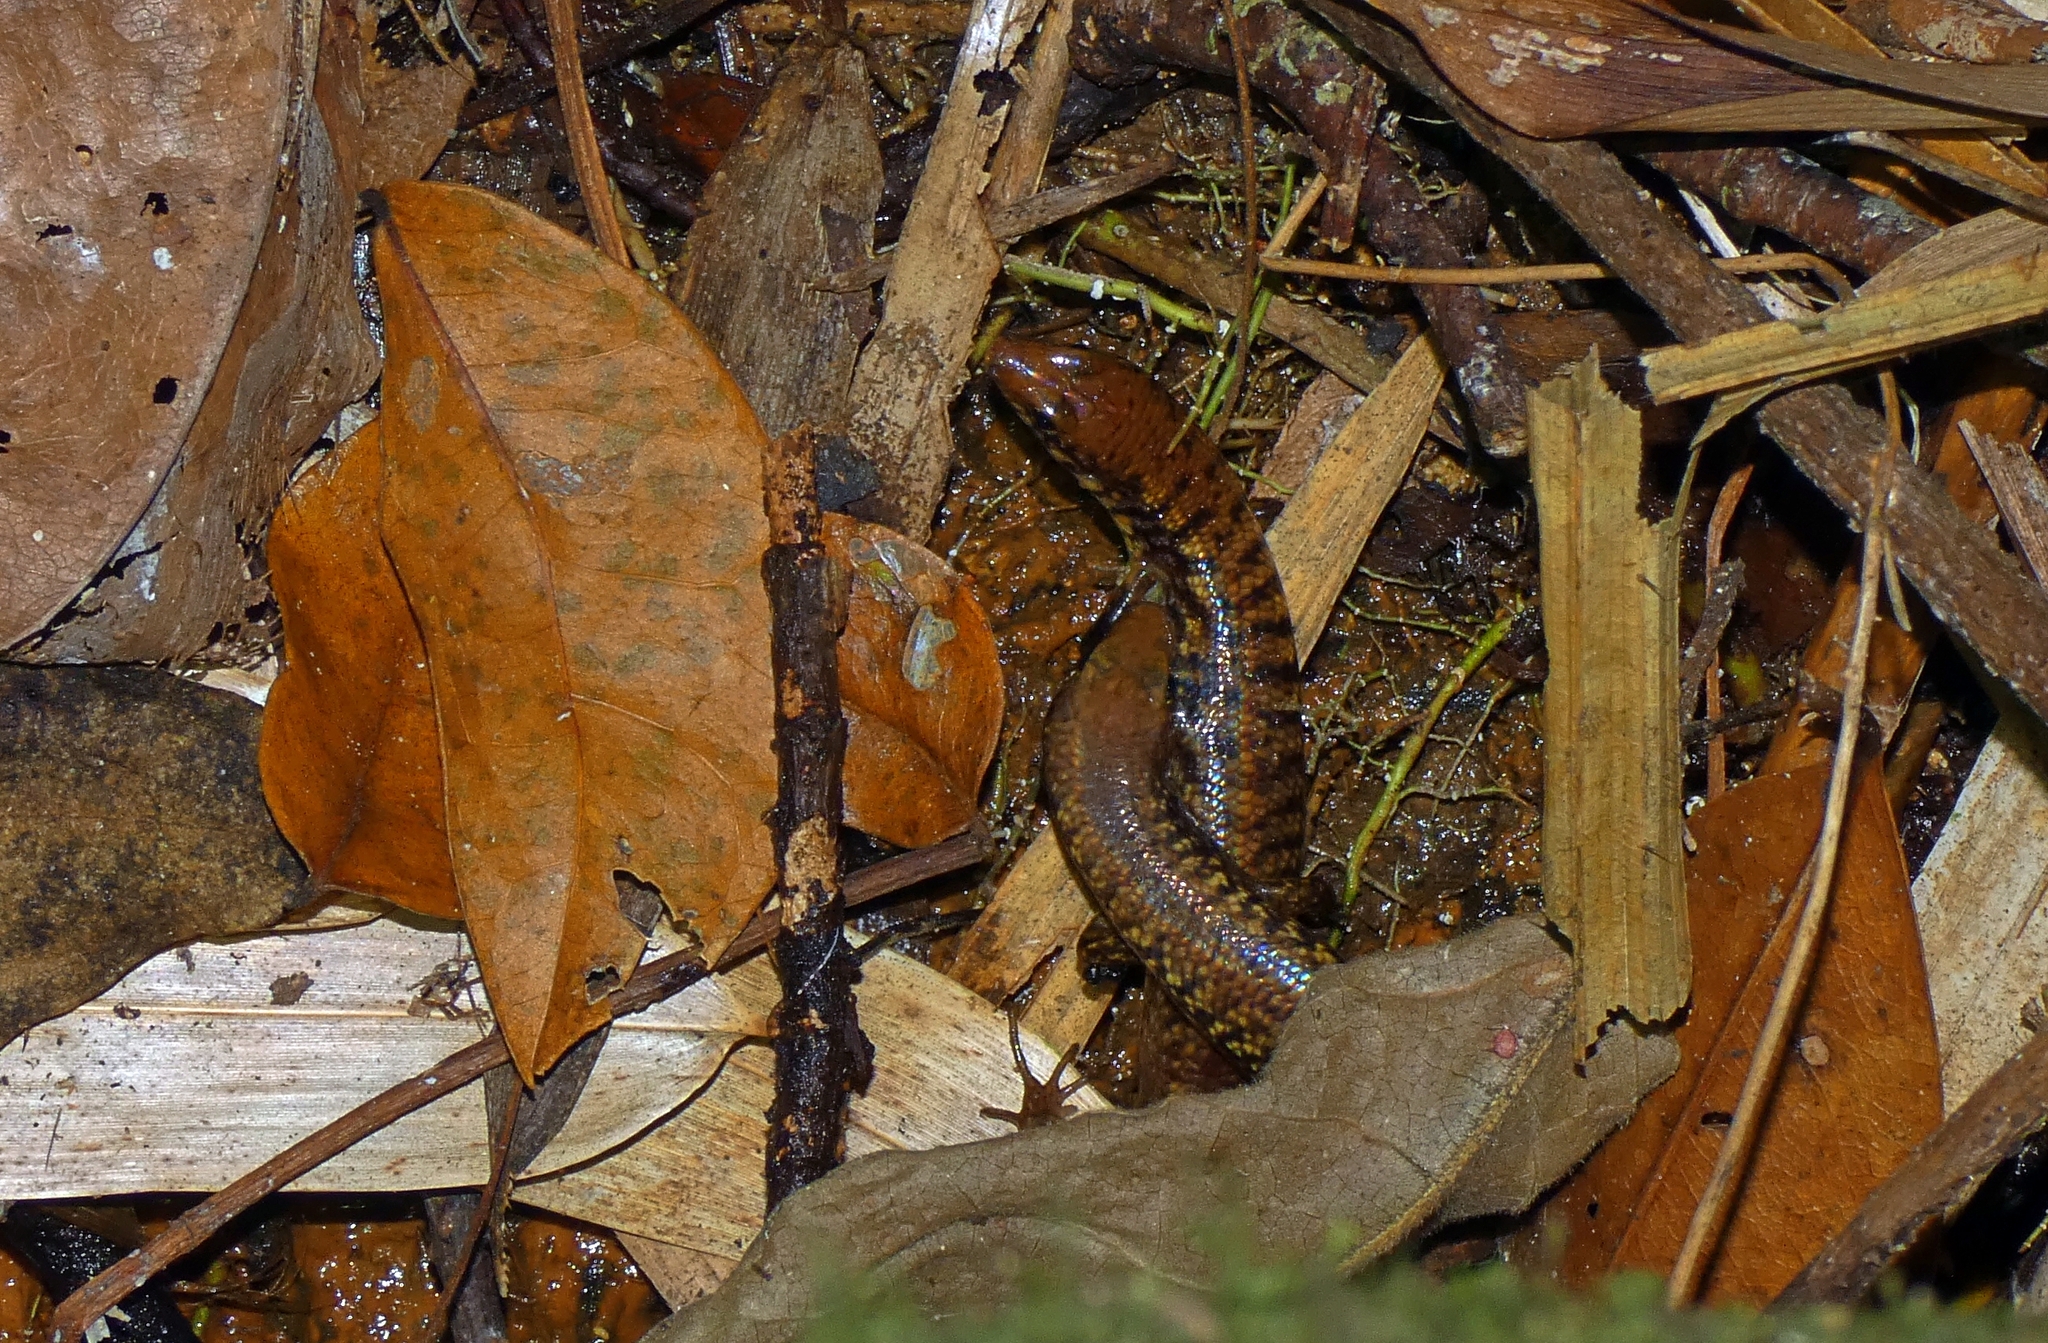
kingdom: Animalia
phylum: Chordata
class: Squamata
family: Scincidae
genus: Concinnia
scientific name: Concinnia tigrina
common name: Rainforest water-skink
